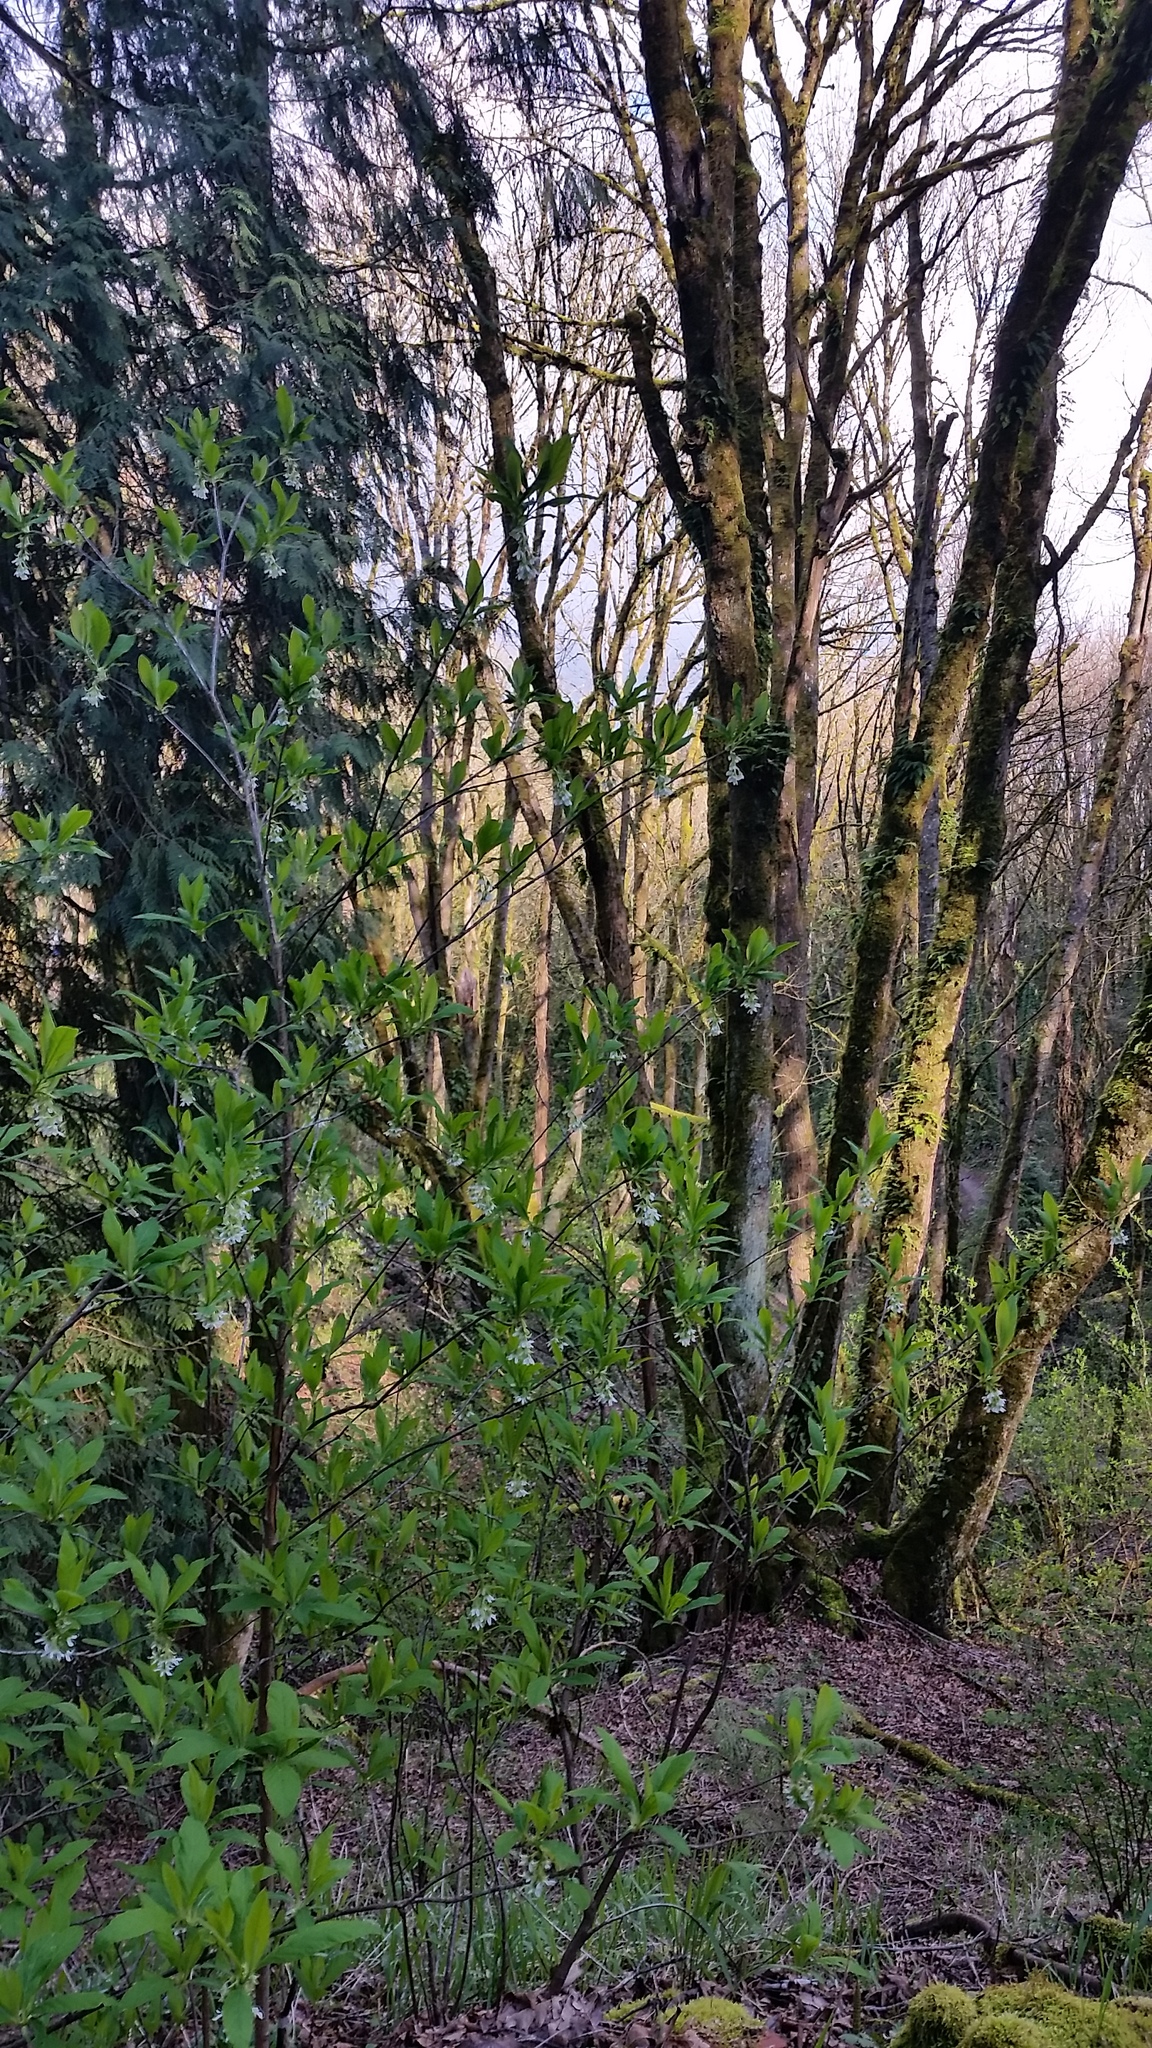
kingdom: Plantae
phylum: Tracheophyta
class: Magnoliopsida
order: Rosales
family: Rosaceae
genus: Oemleria
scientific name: Oemleria cerasiformis
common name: Osoberry
